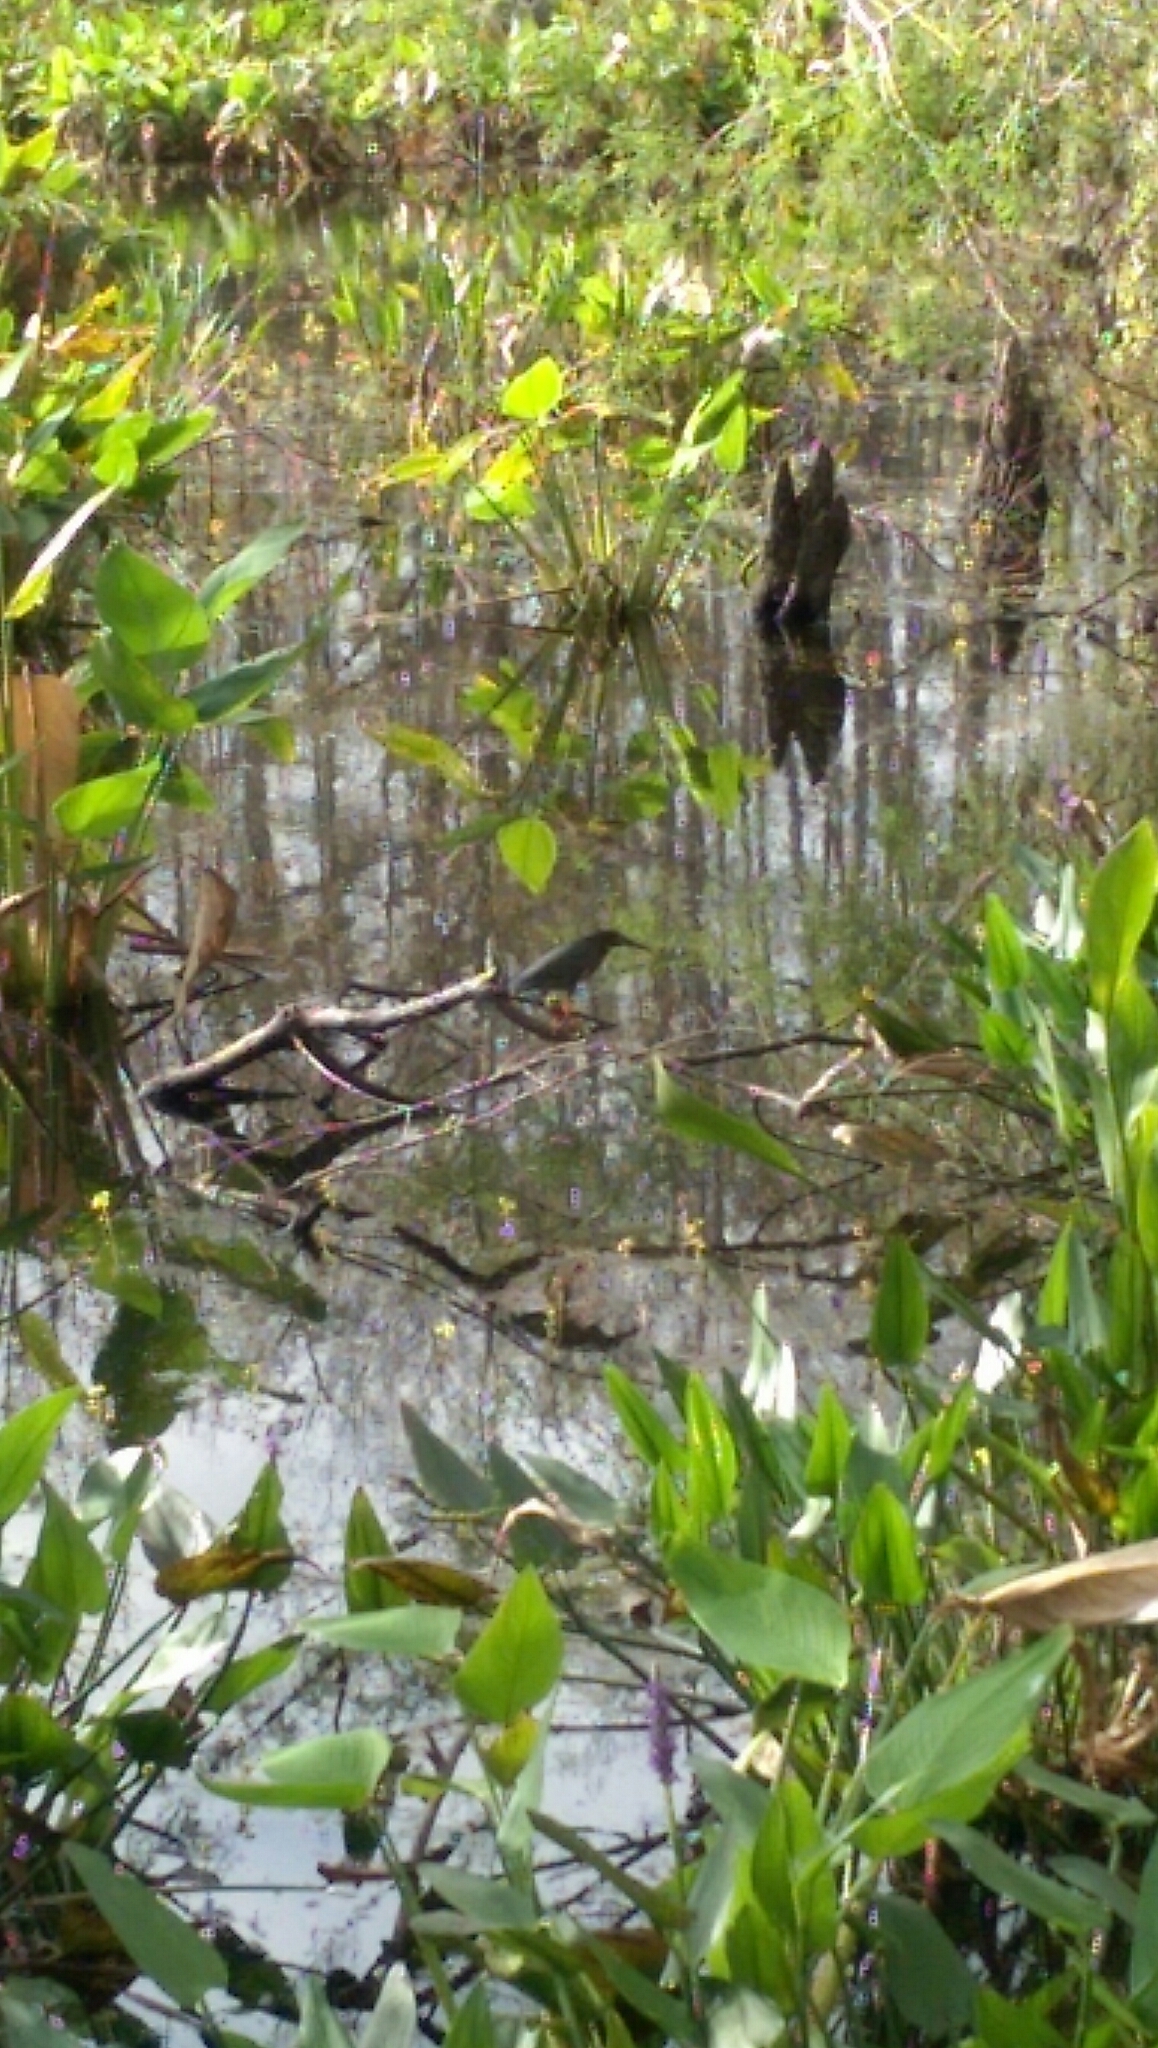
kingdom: Animalia
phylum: Chordata
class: Aves
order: Pelecaniformes
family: Ardeidae
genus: Butorides
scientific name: Butorides virescens
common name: Green heron
